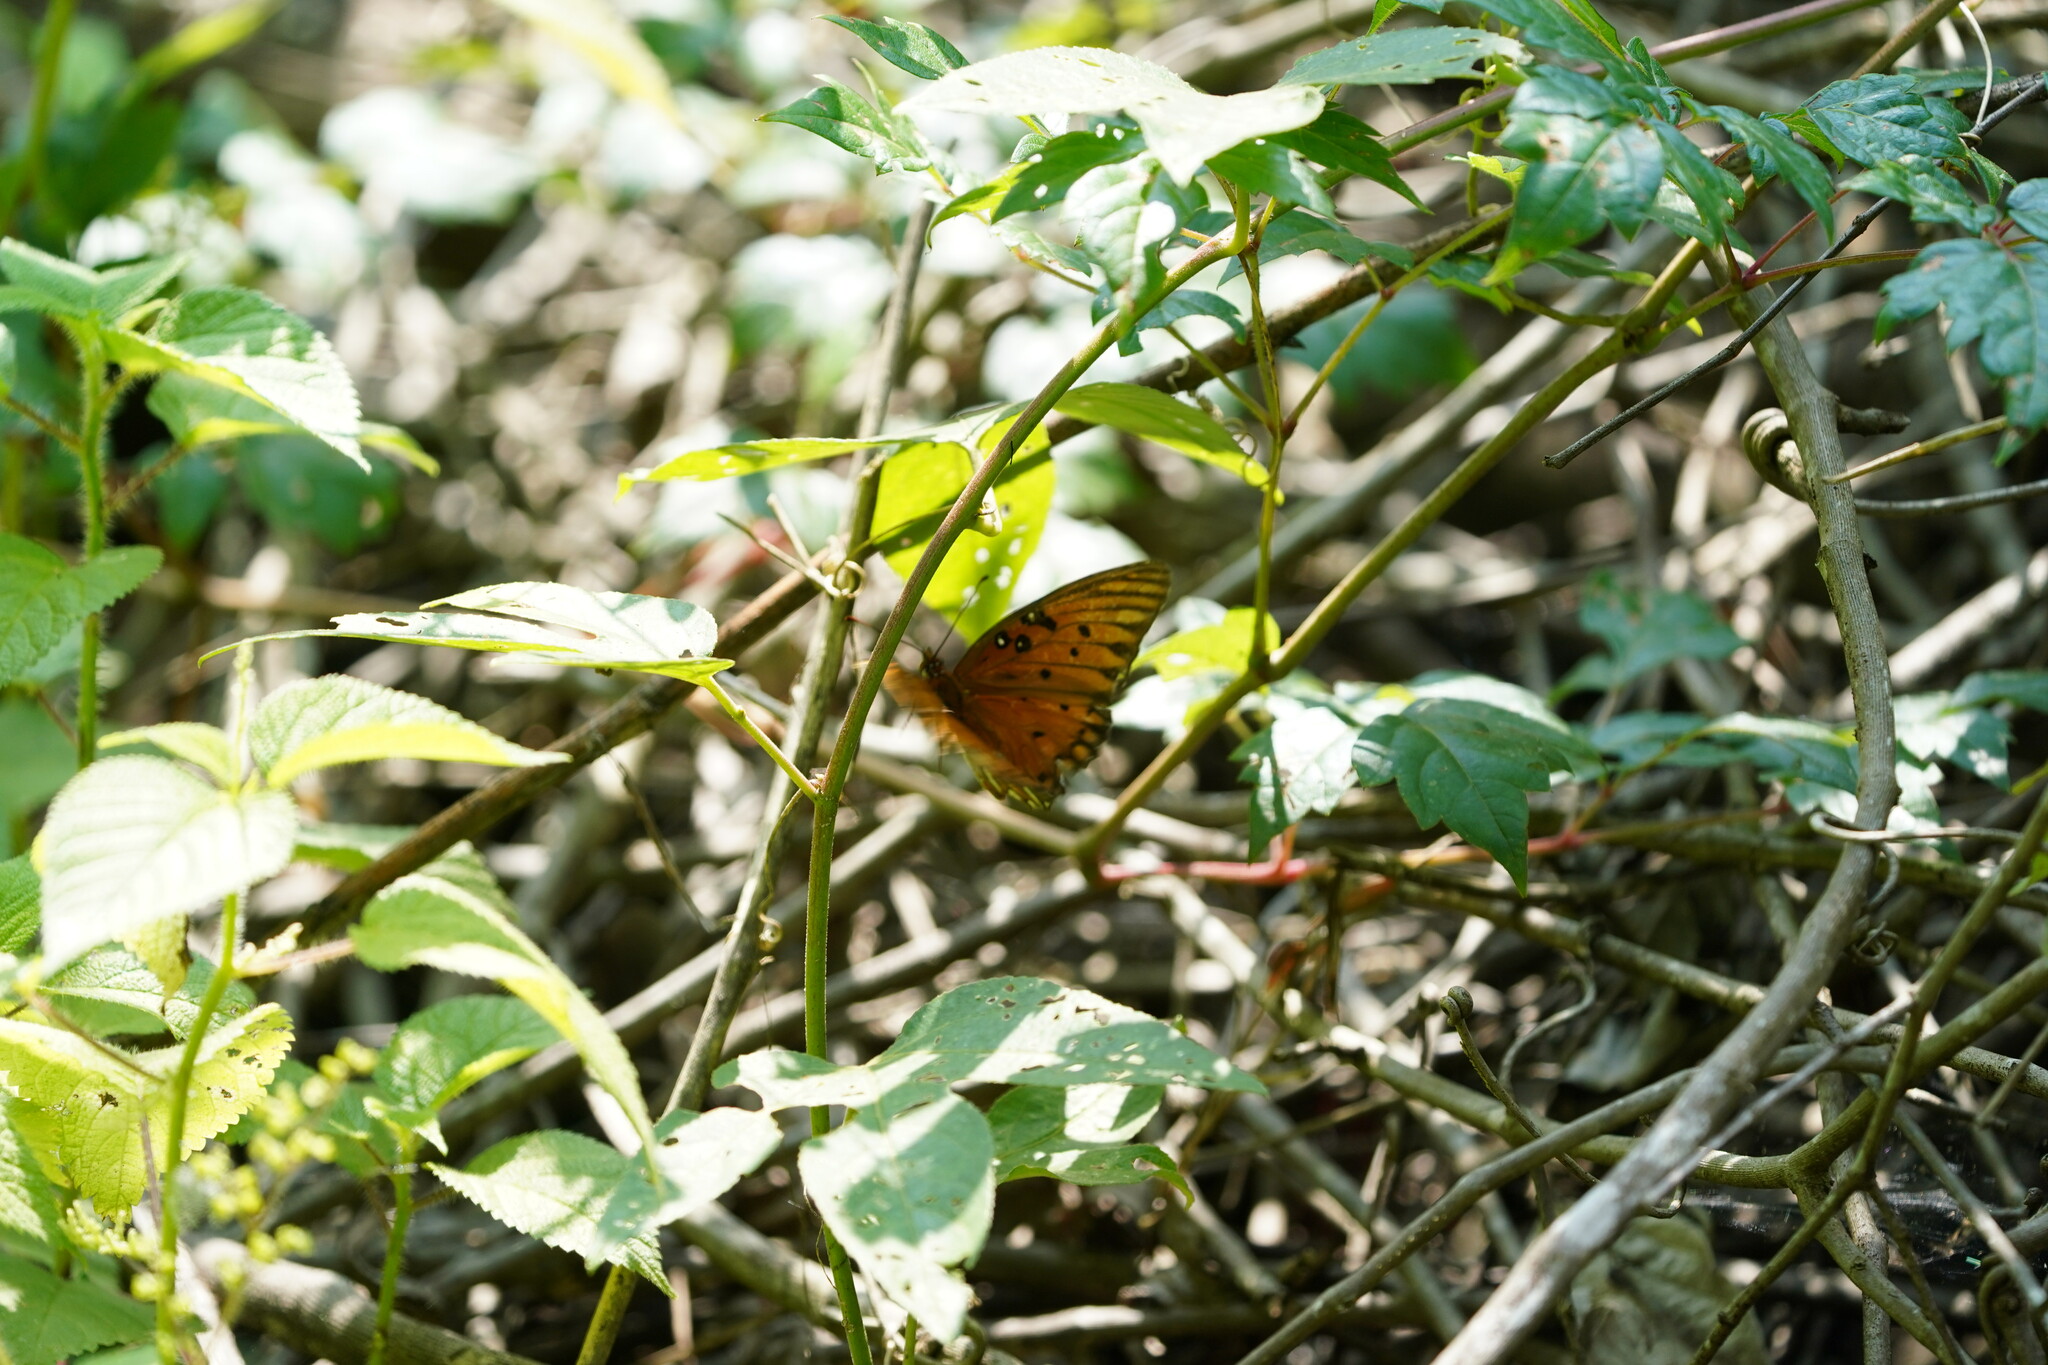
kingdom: Animalia
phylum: Arthropoda
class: Insecta
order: Lepidoptera
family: Nymphalidae
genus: Dione
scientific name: Dione vanillae
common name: Gulf fritillary
